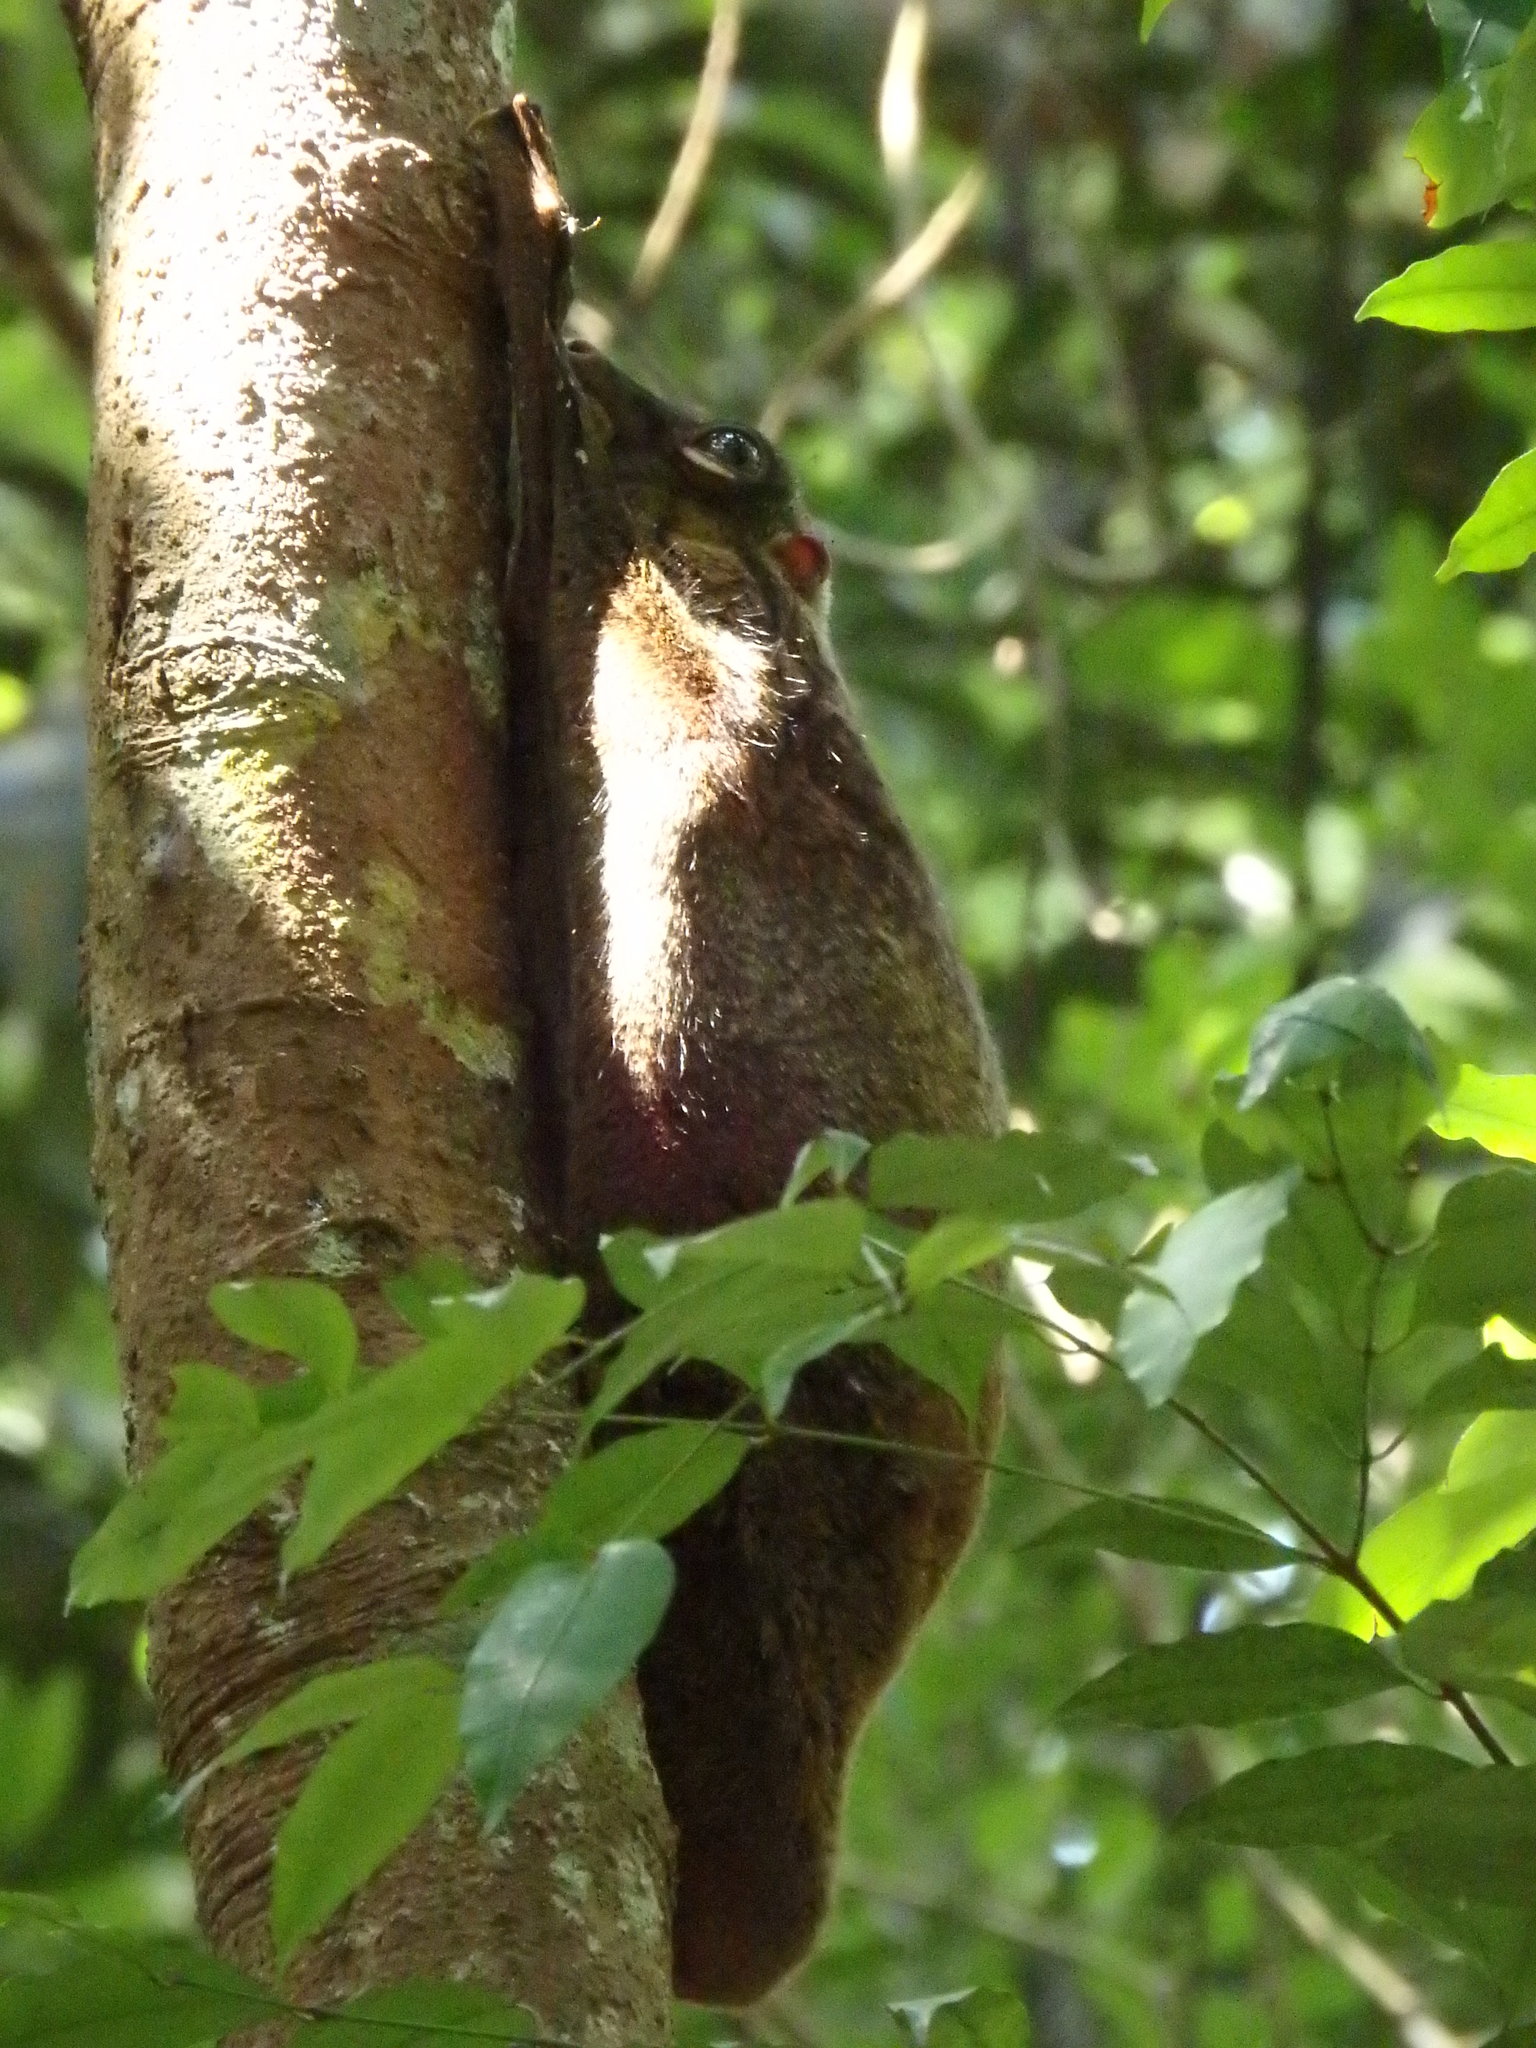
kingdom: Animalia
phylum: Chordata
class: Mammalia
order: Dermoptera
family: Cynocephalidae
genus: Galeopterus
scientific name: Galeopterus variegatus
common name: Sunda flying lemur
